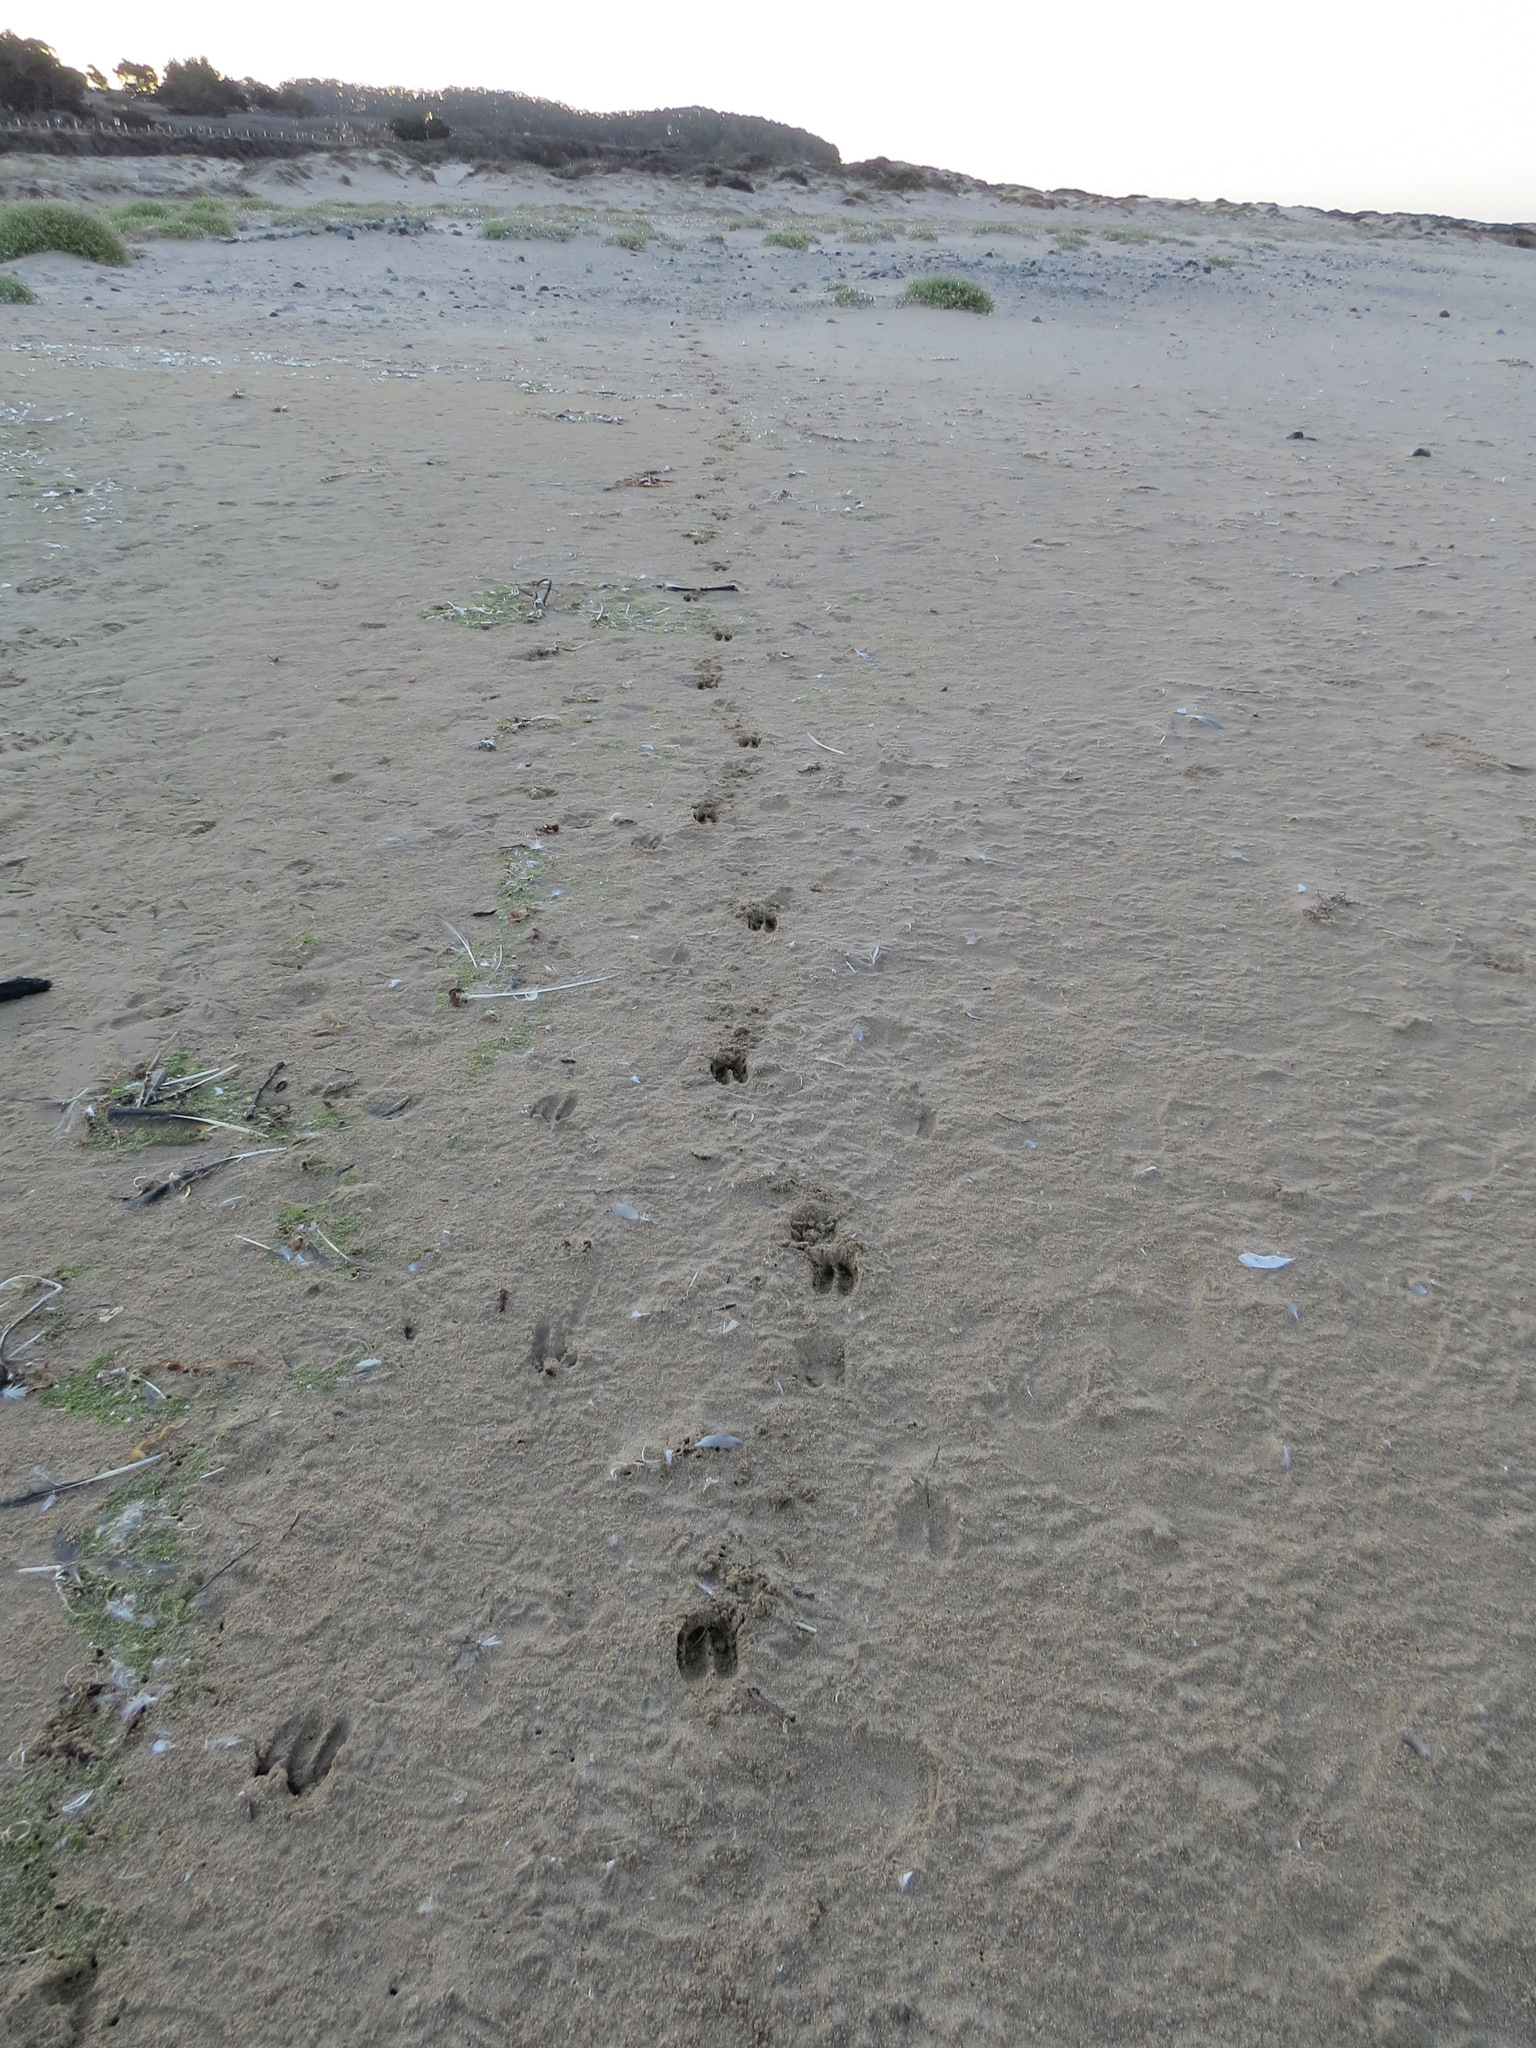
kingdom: Animalia
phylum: Chordata
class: Mammalia
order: Artiodactyla
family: Cervidae
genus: Odocoileus
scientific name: Odocoileus hemionus
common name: Mule deer
